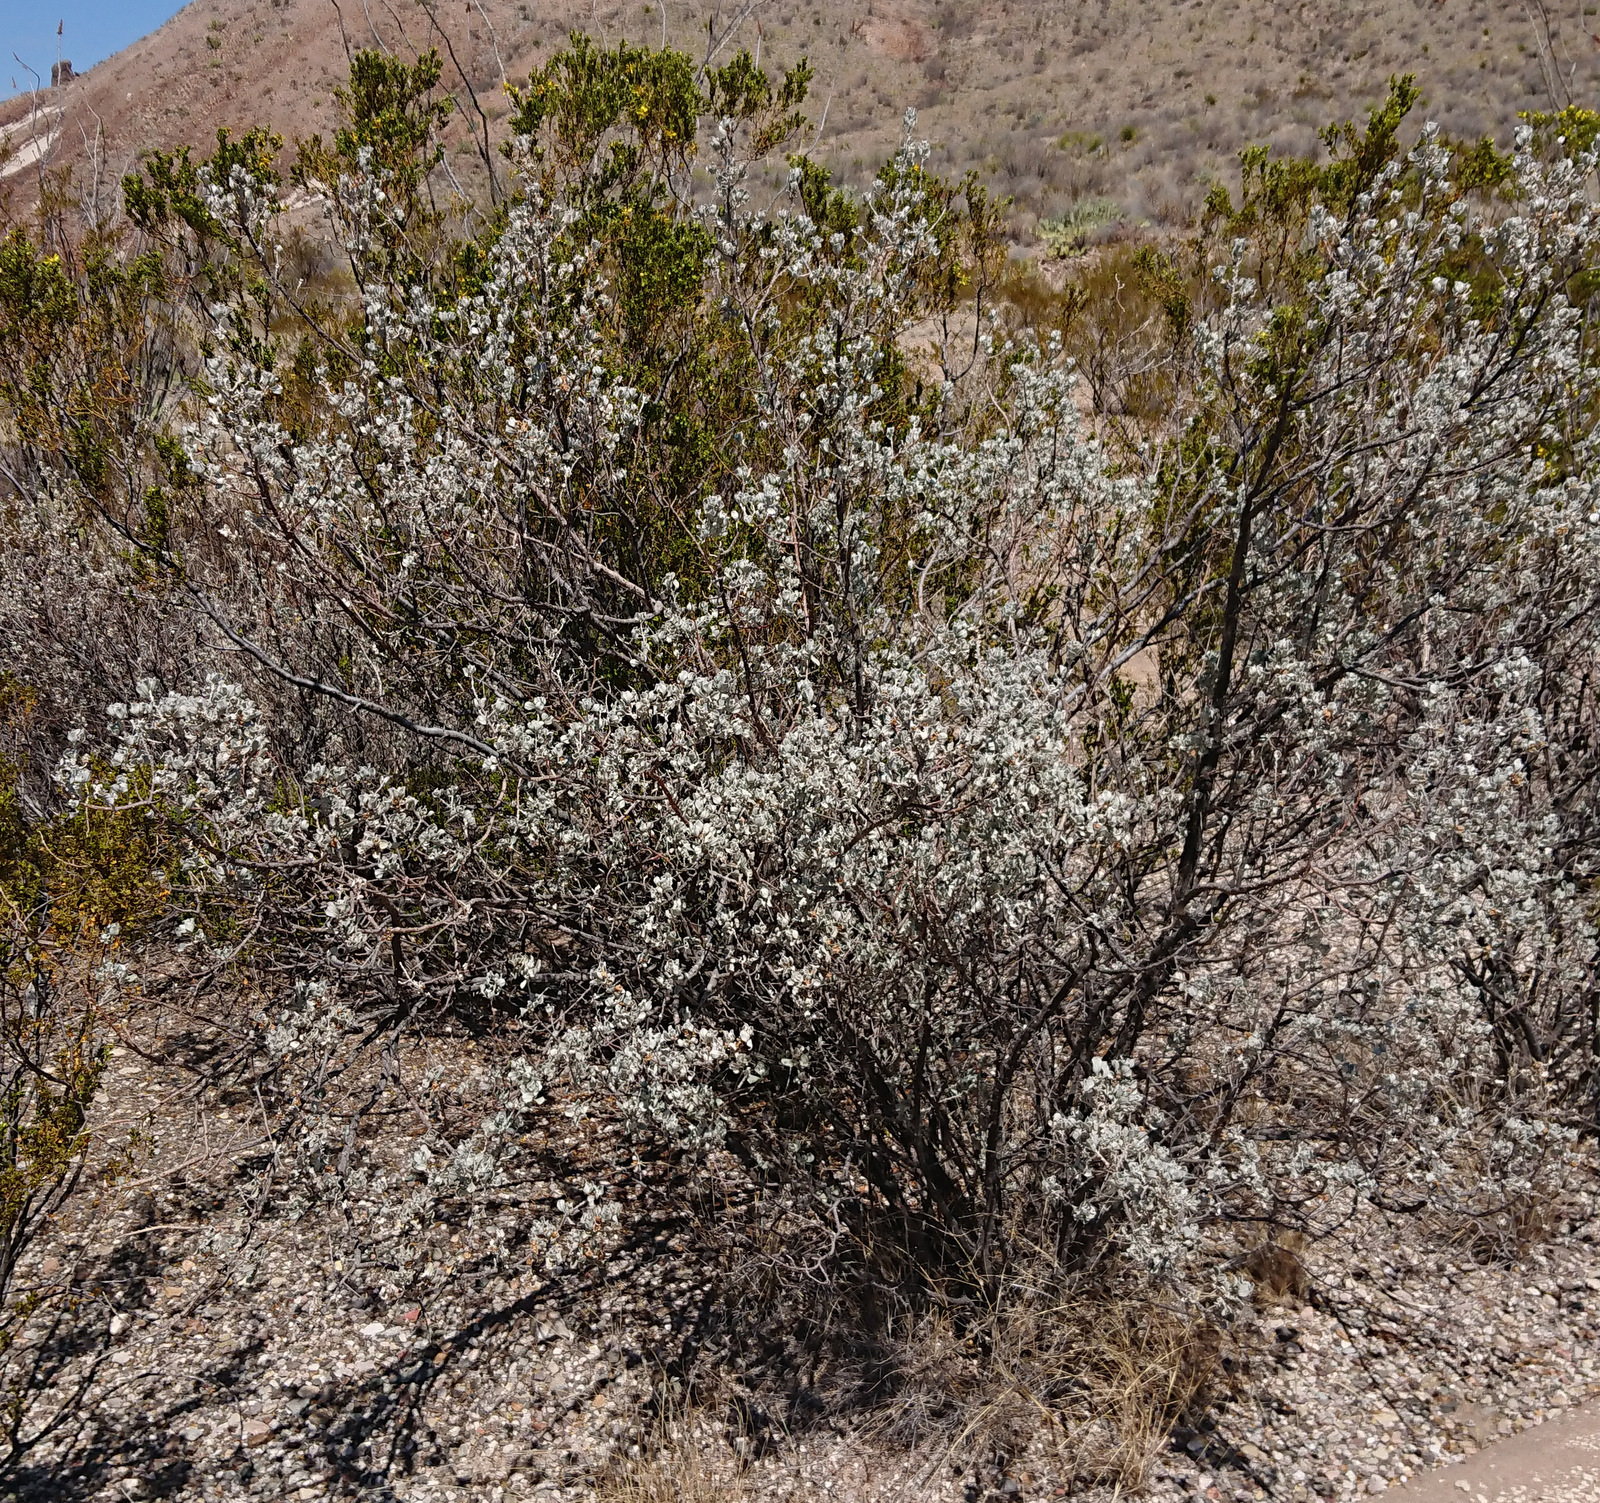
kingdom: Plantae
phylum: Tracheophyta
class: Magnoliopsida
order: Lamiales
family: Scrophulariaceae
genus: Leucophyllum
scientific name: Leucophyllum frutescens
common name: Texas silverleaf
